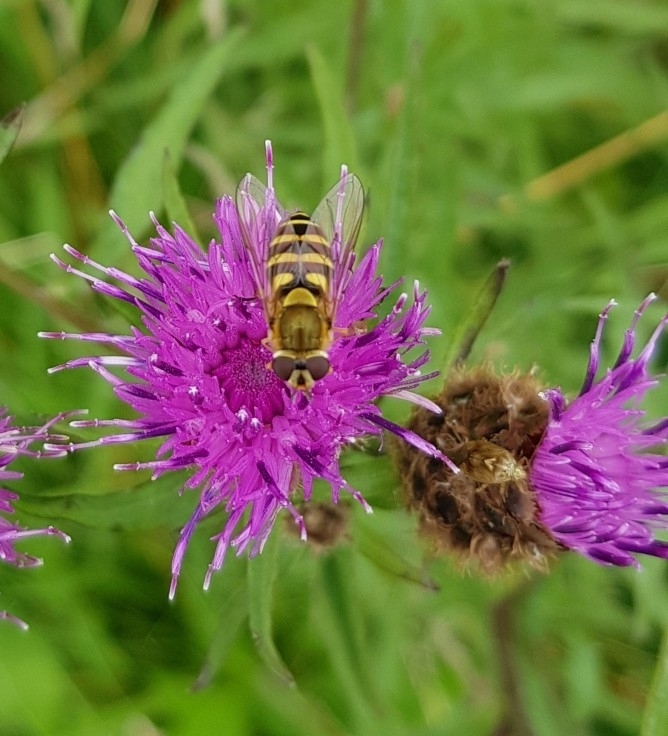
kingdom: Animalia
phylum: Arthropoda
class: Insecta
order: Diptera
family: Syrphidae
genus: Syrphus
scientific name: Syrphus
